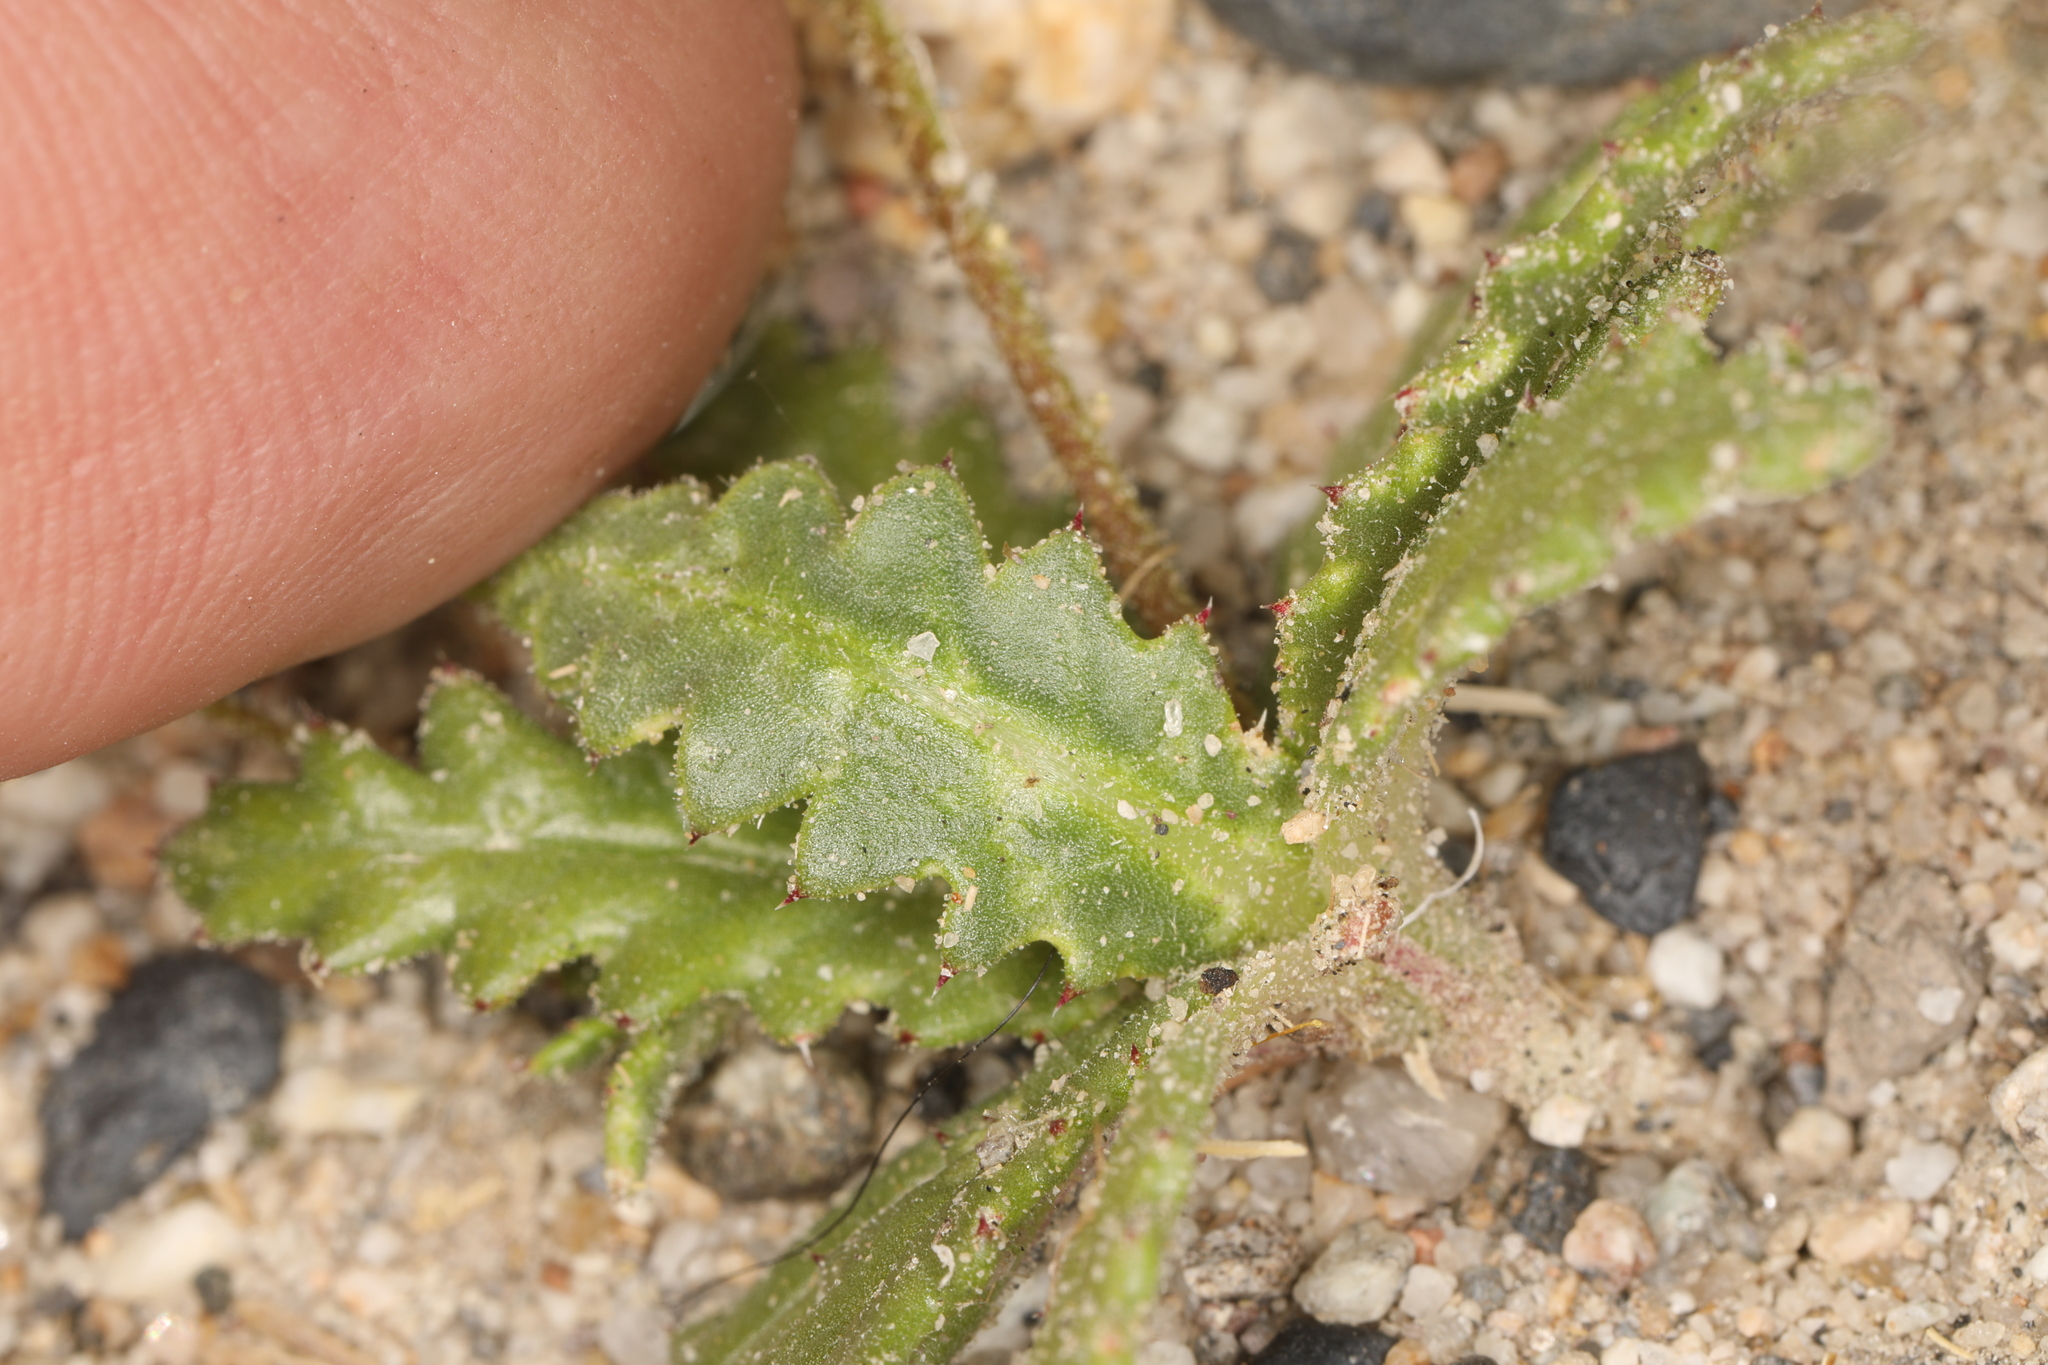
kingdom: Plantae
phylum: Tracheophyta
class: Magnoliopsida
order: Ericales
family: Polemoniaceae
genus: Aliciella
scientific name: Aliciella leptomeria
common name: Sand gilia
